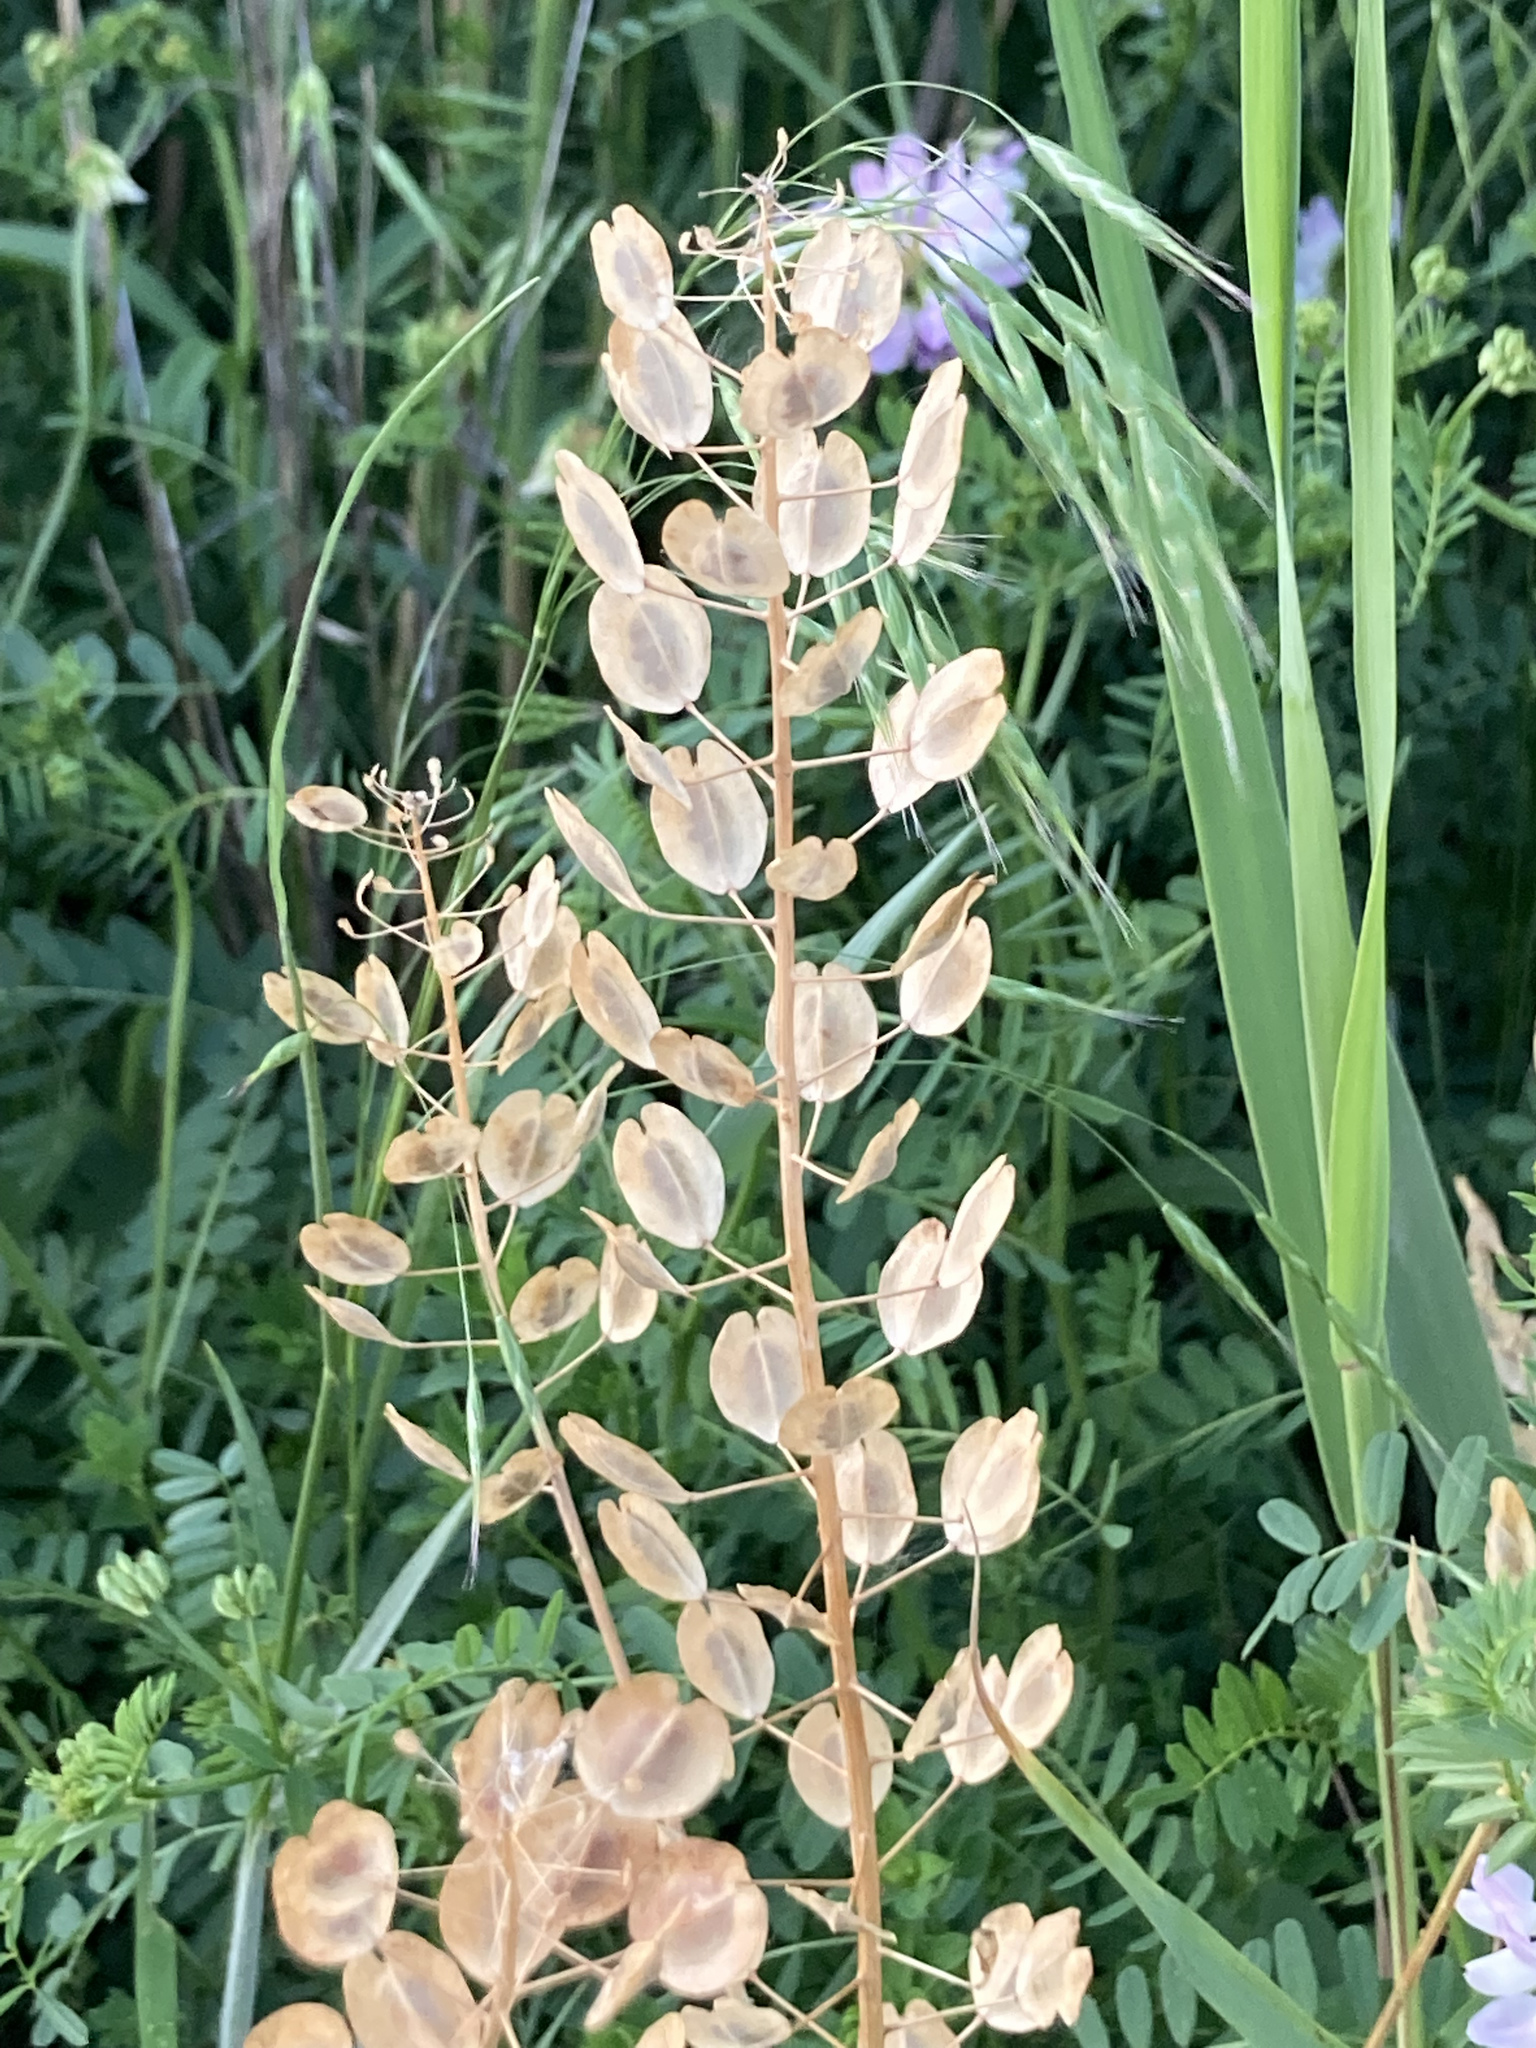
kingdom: Plantae
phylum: Tracheophyta
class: Magnoliopsida
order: Brassicales
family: Brassicaceae
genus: Thlaspi
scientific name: Thlaspi arvense
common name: Field pennycress
